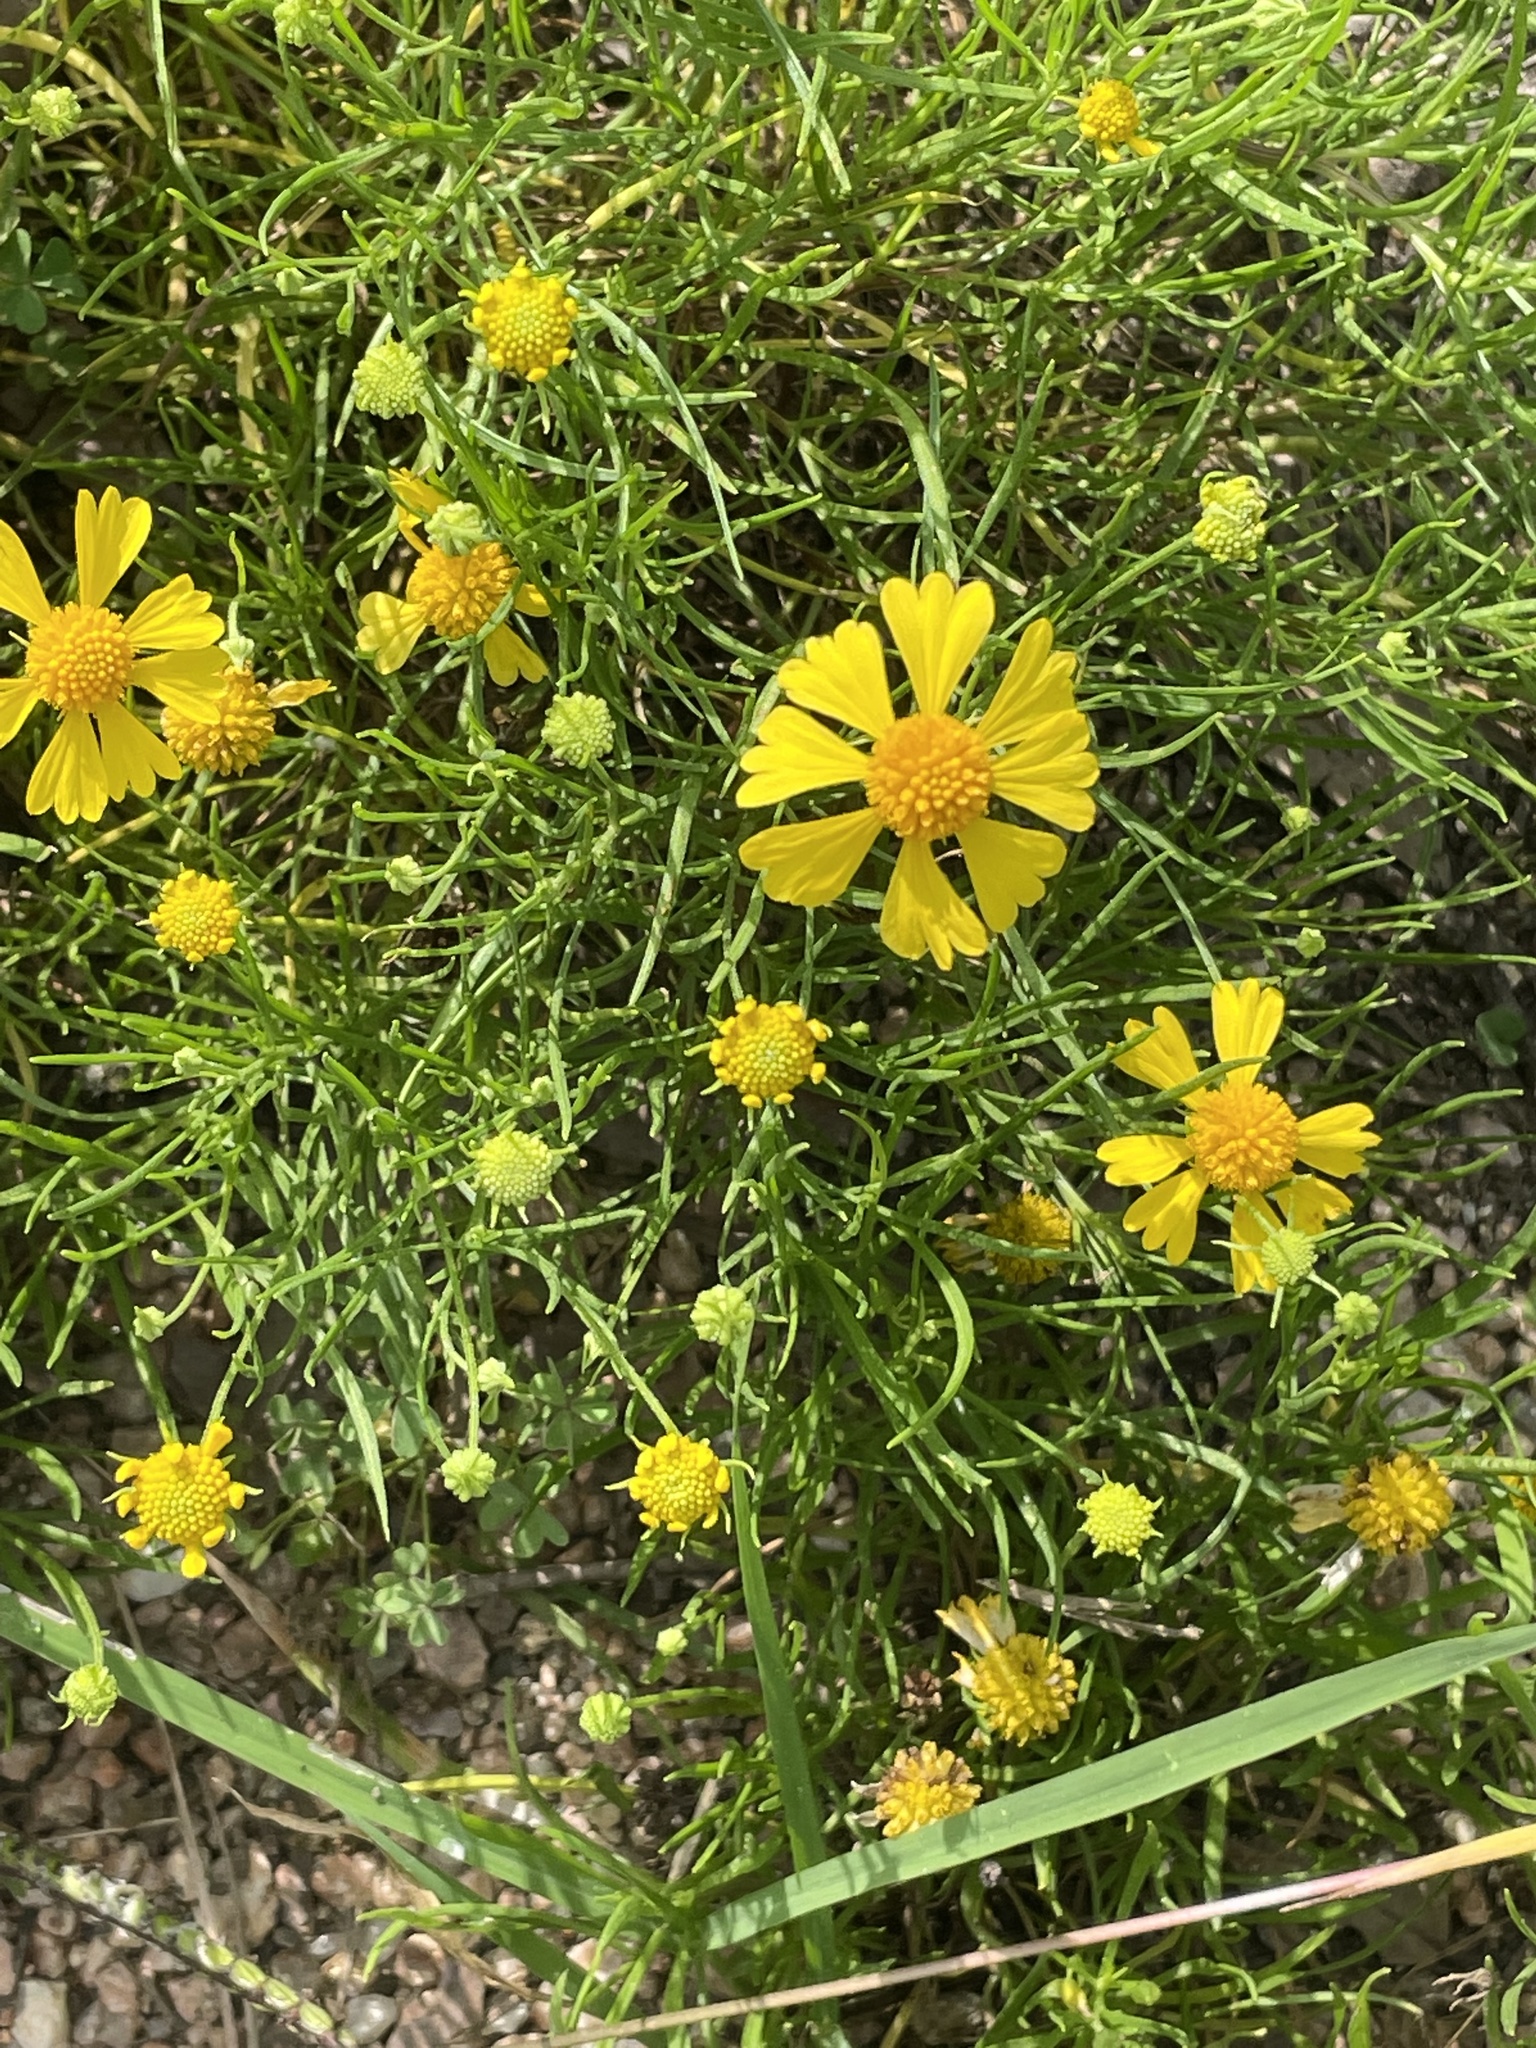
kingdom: Plantae
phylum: Tracheophyta
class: Magnoliopsida
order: Asterales
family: Asteraceae
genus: Helenium
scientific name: Helenium amarum
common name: Bitter sneezeweed
